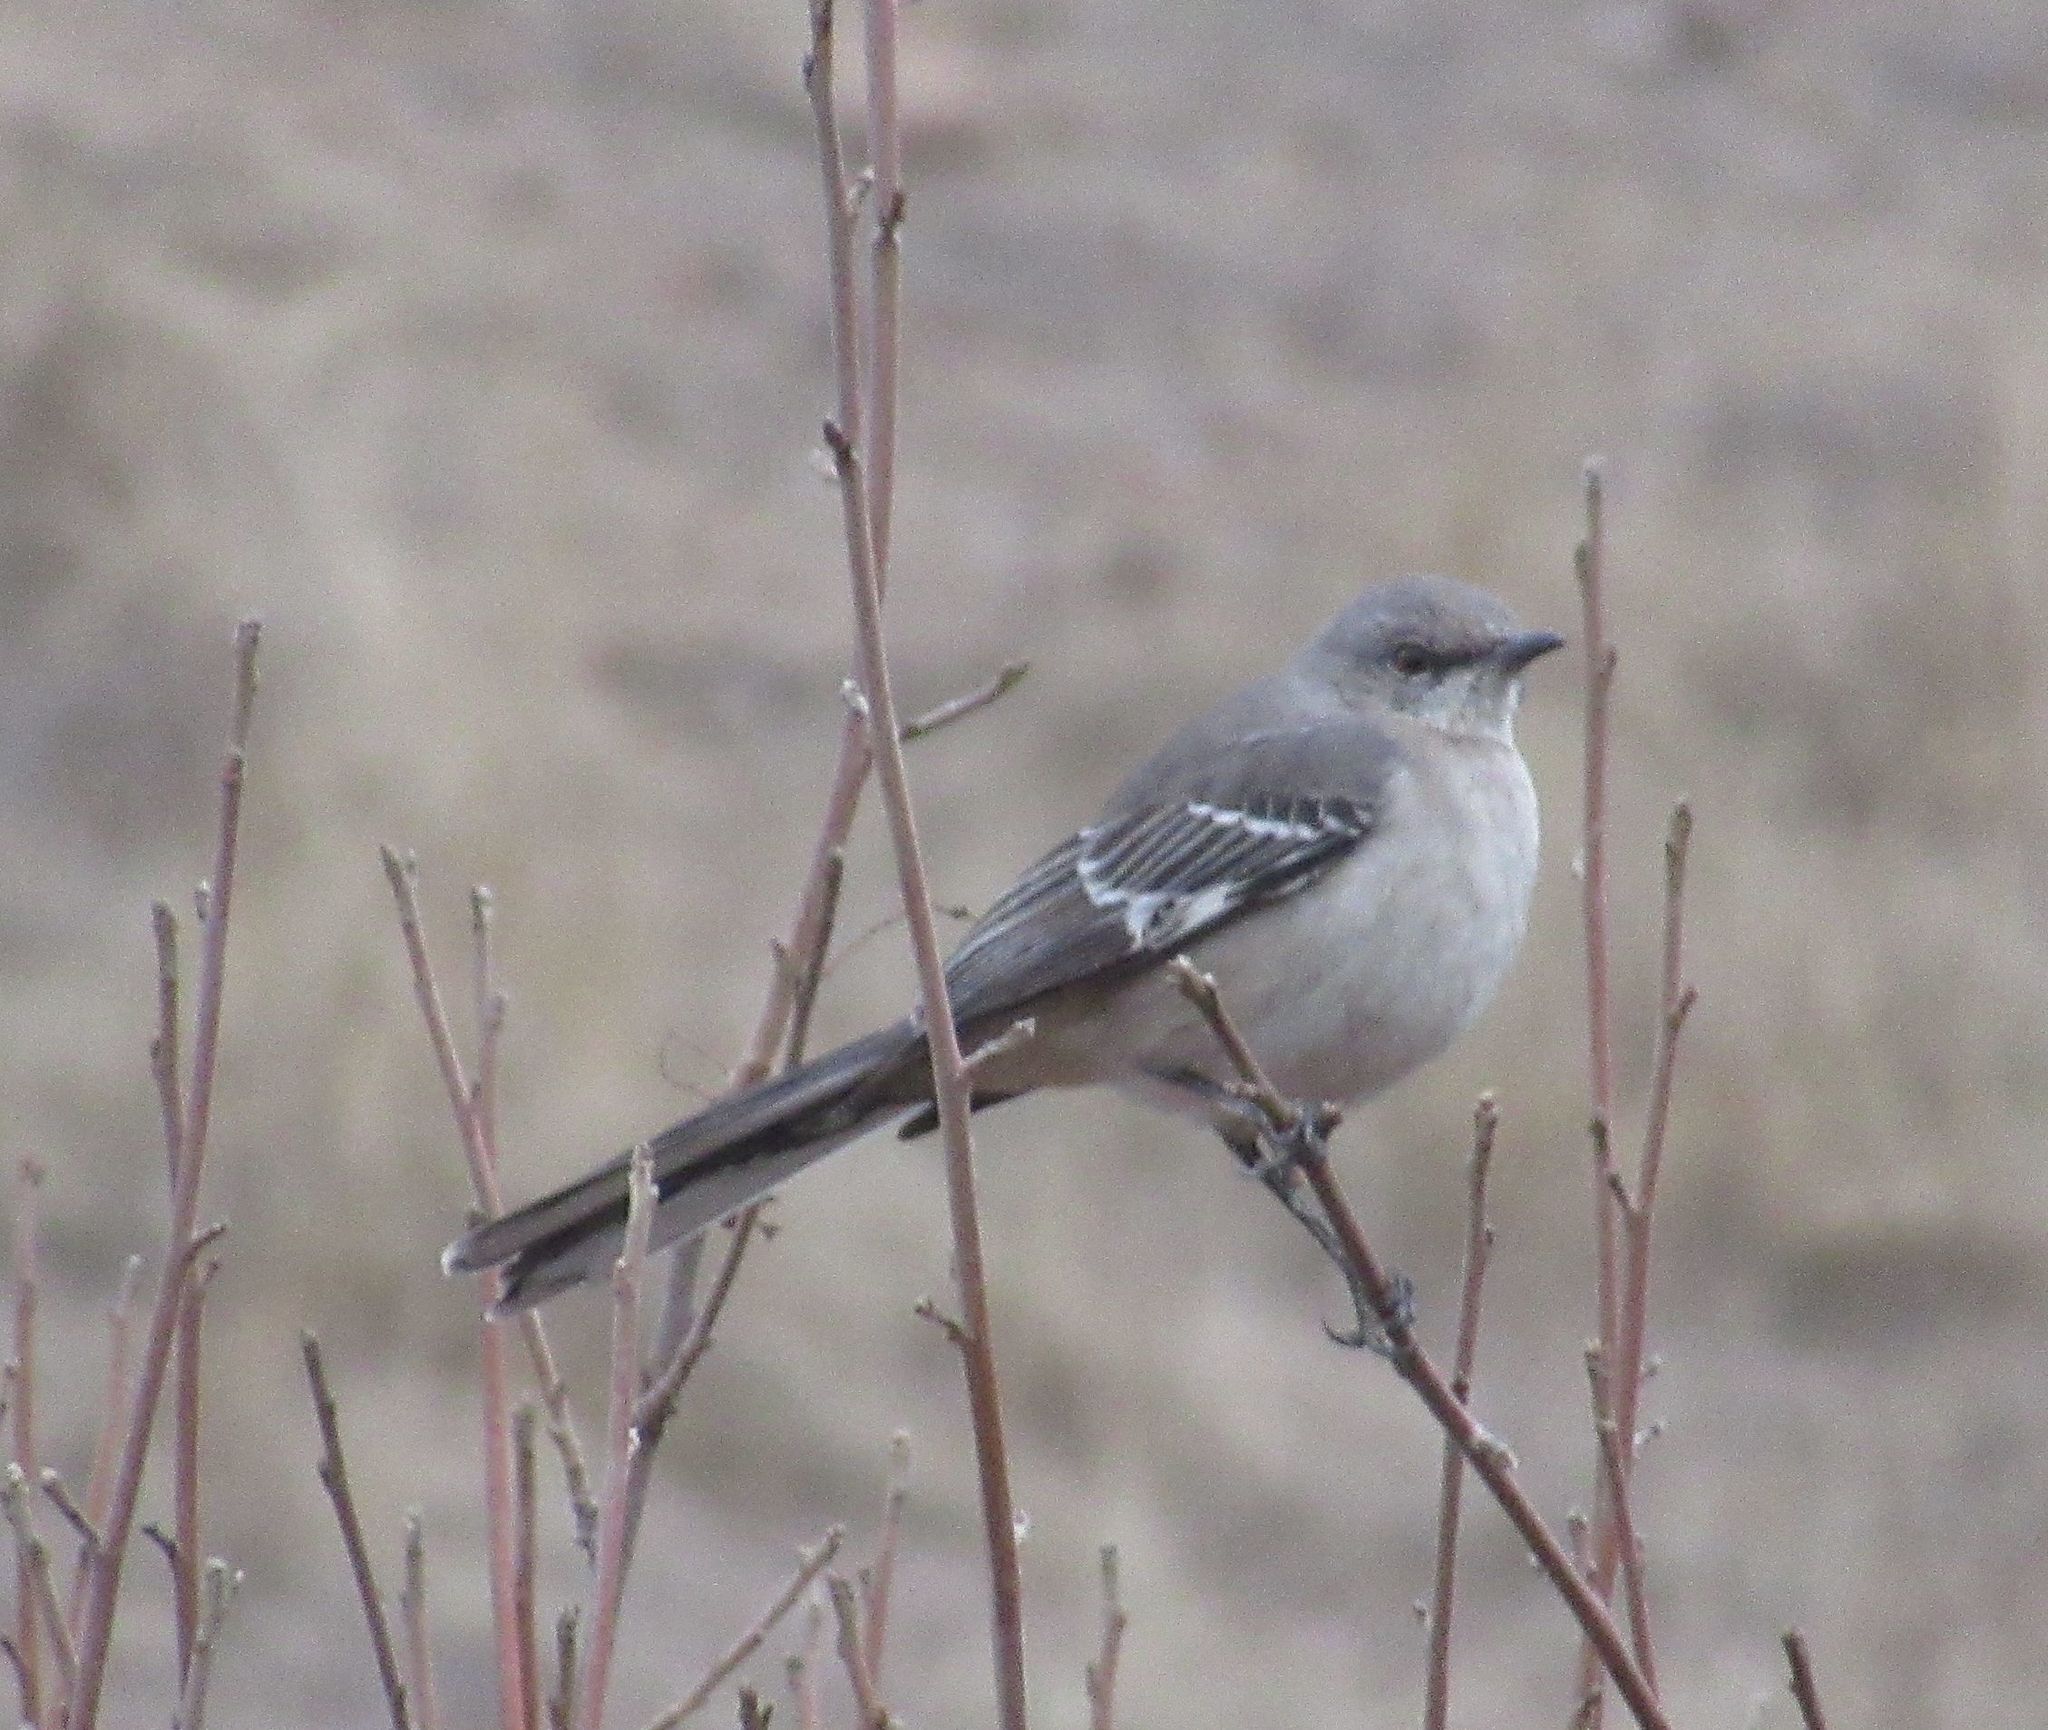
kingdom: Animalia
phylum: Chordata
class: Aves
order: Passeriformes
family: Mimidae
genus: Mimus
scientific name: Mimus polyglottos
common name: Northern mockingbird
